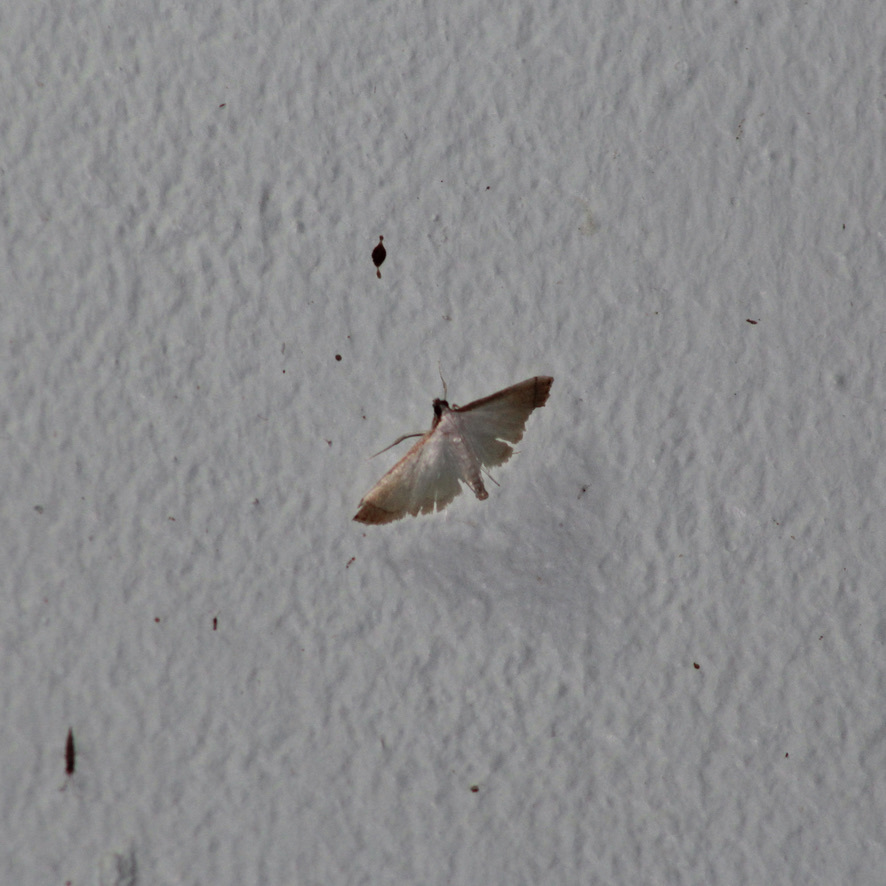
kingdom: Animalia
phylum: Arthropoda
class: Insecta
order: Lepidoptera
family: Crambidae
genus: Stenia
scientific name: Stenia saurialis
